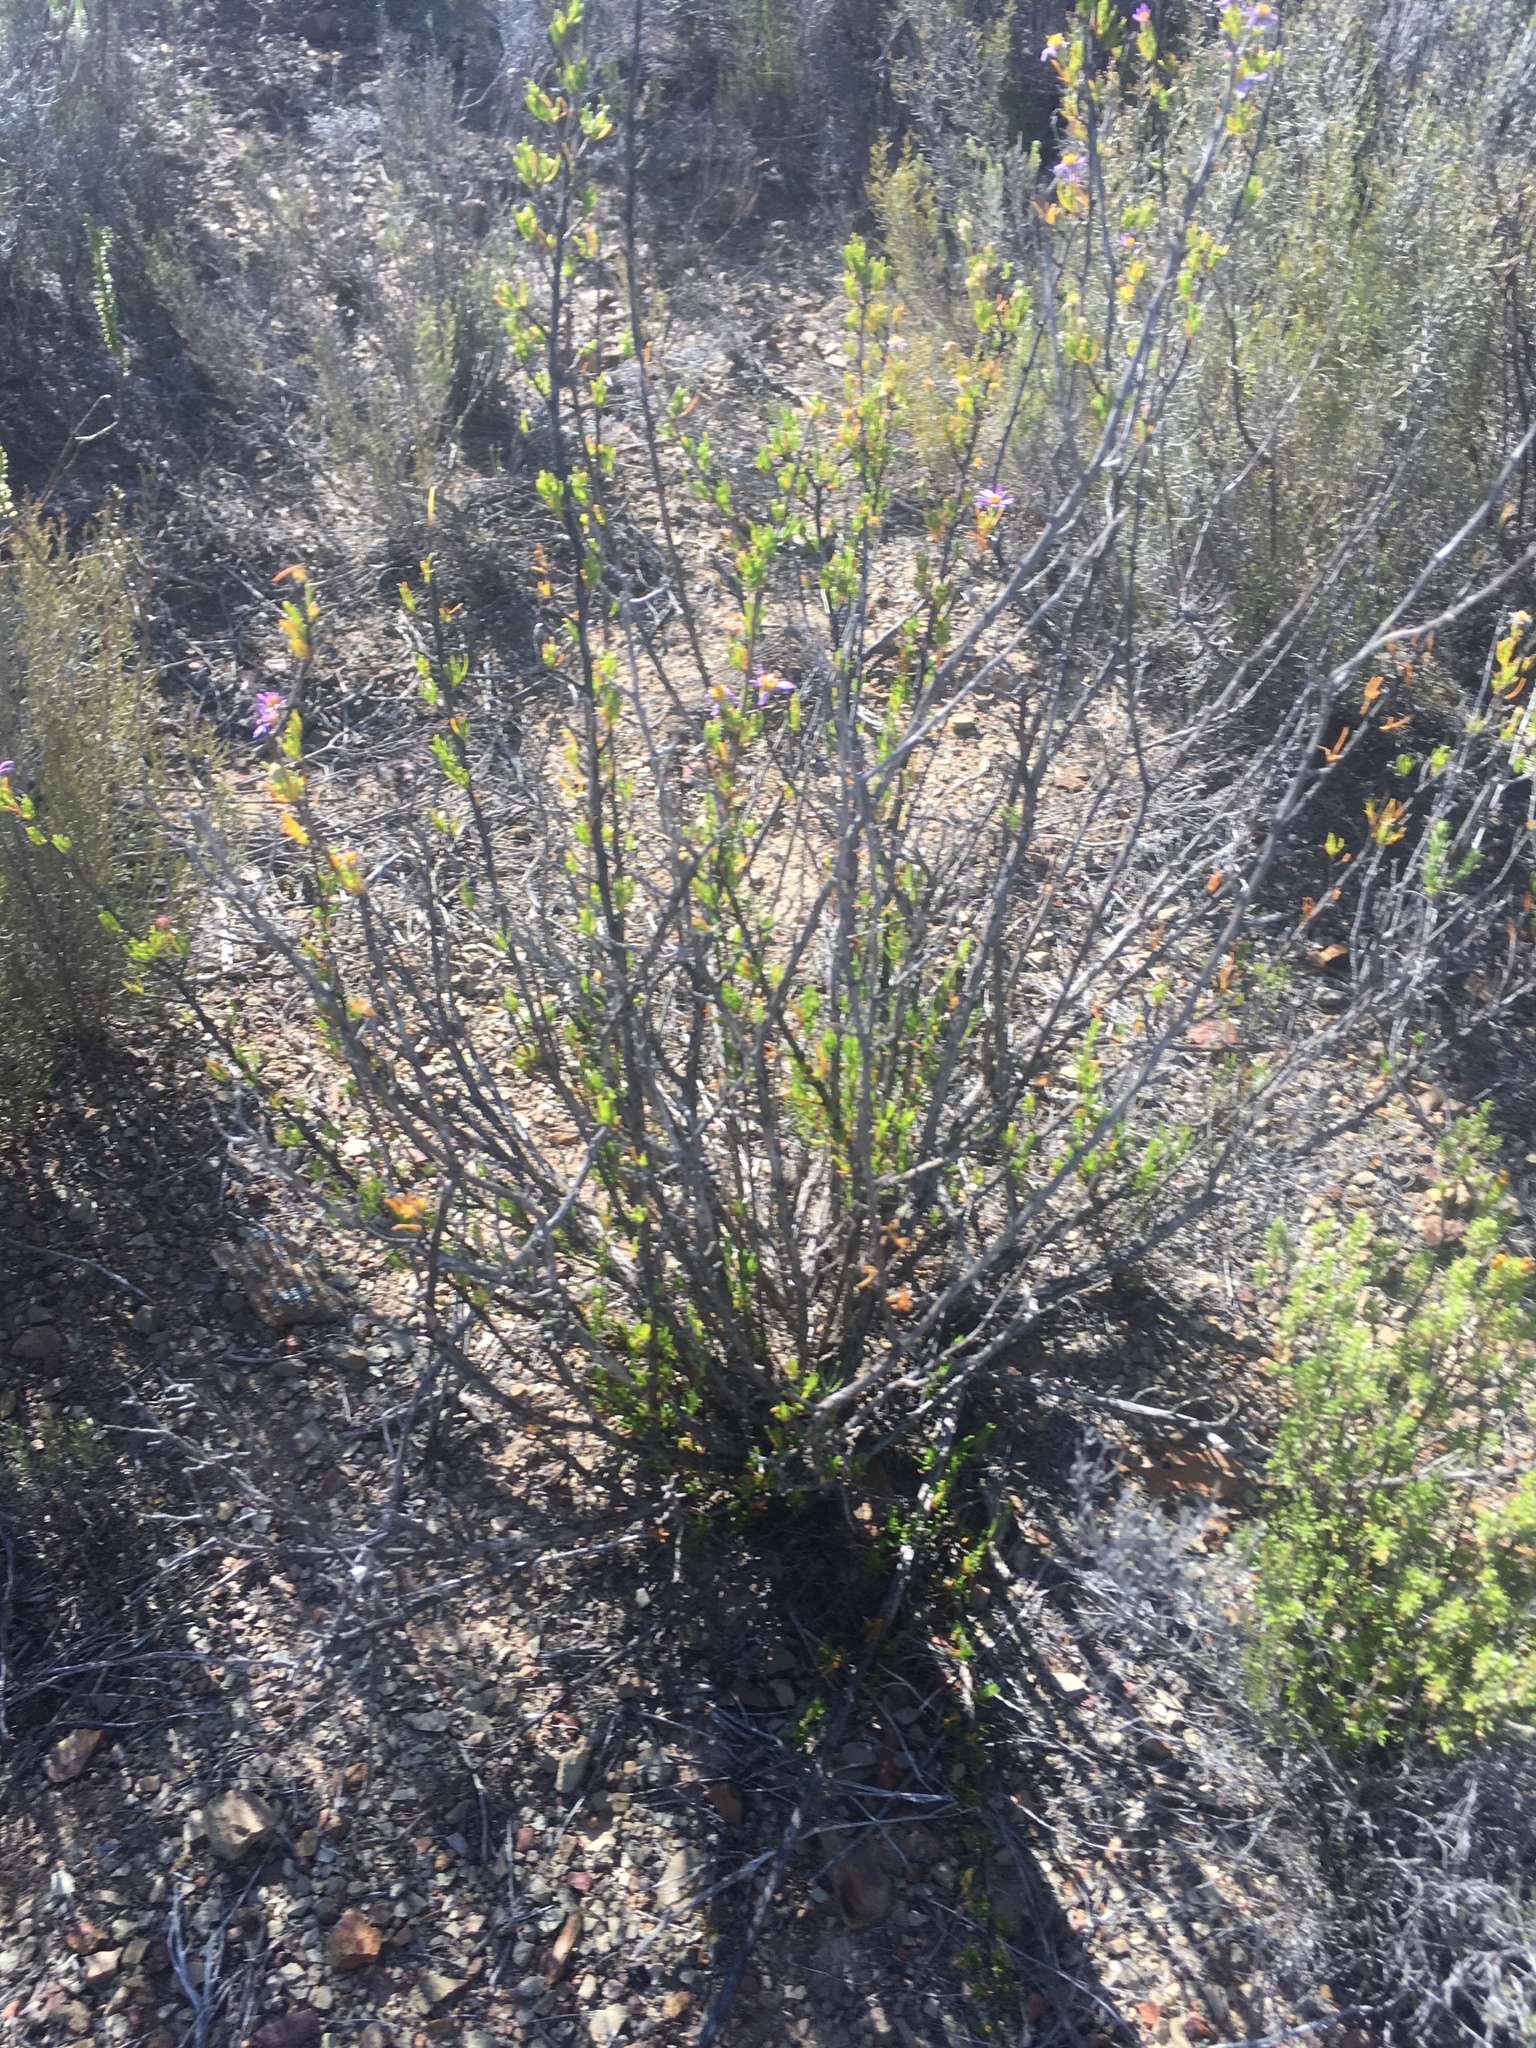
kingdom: Plantae
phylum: Tracheophyta
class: Magnoliopsida
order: Asterales
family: Asteraceae
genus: Felicia
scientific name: Felicia filifolia
